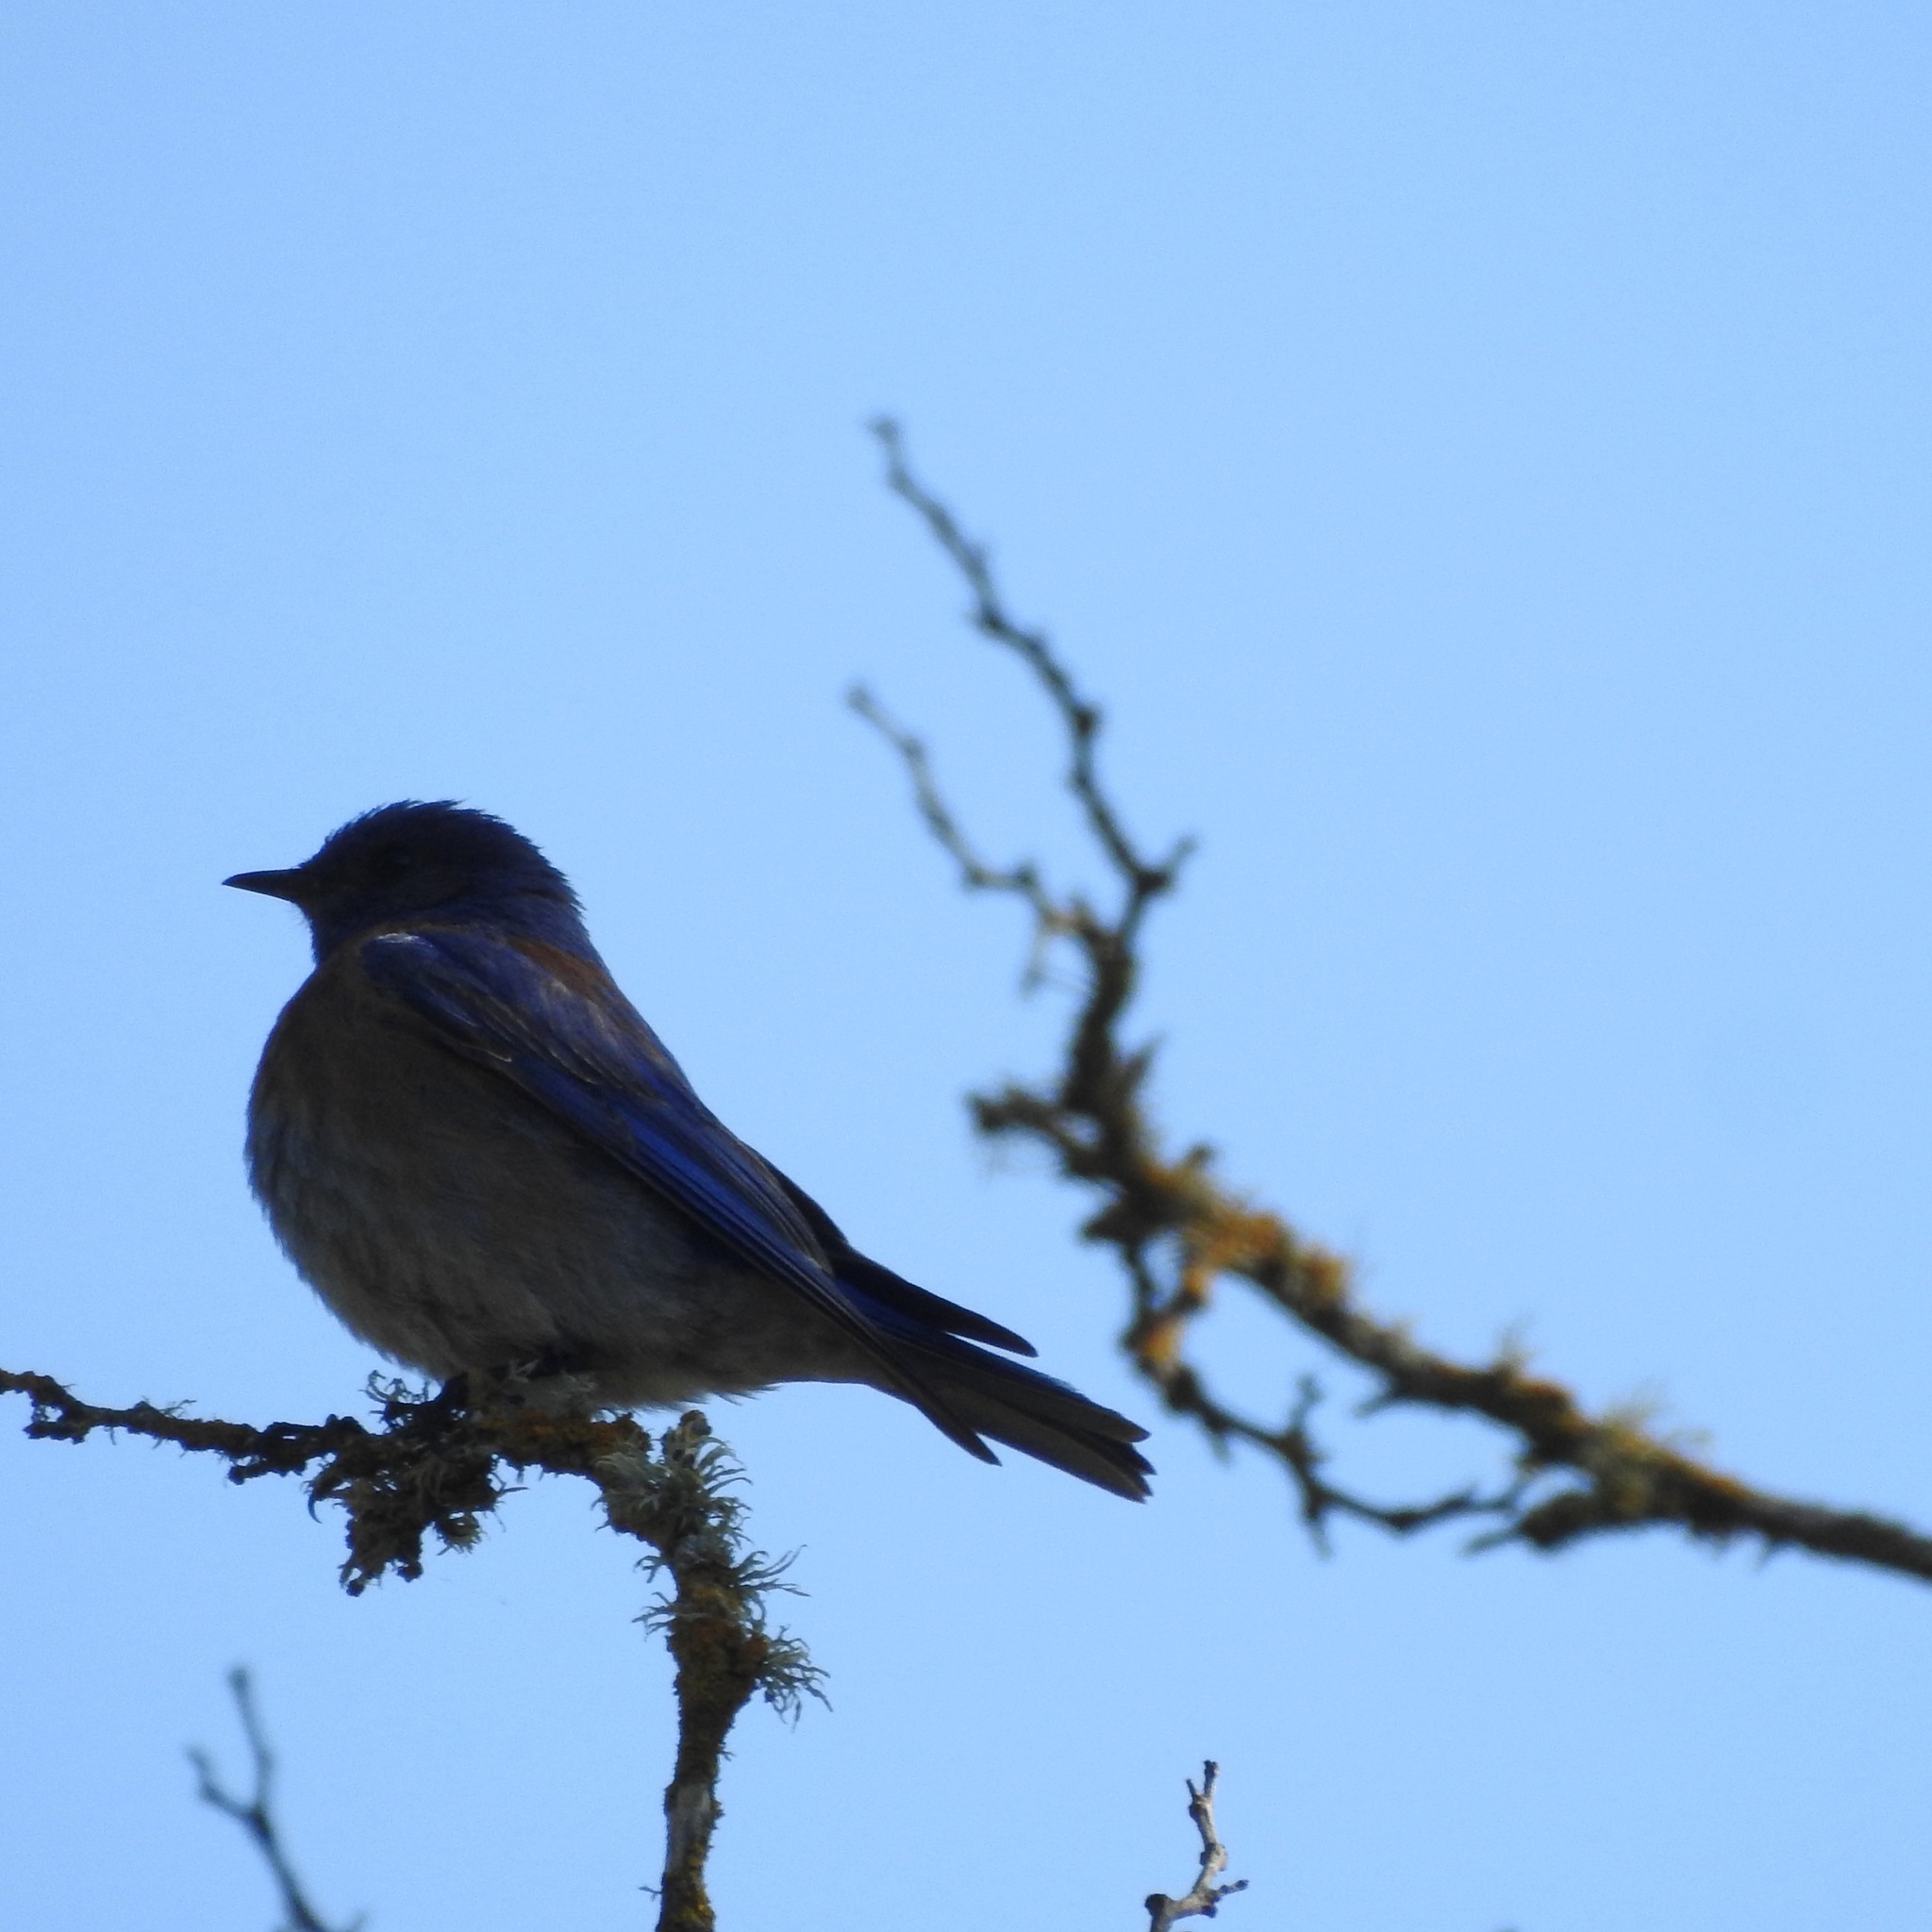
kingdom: Animalia
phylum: Chordata
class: Aves
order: Passeriformes
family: Turdidae
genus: Sialia
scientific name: Sialia mexicana
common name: Western bluebird
